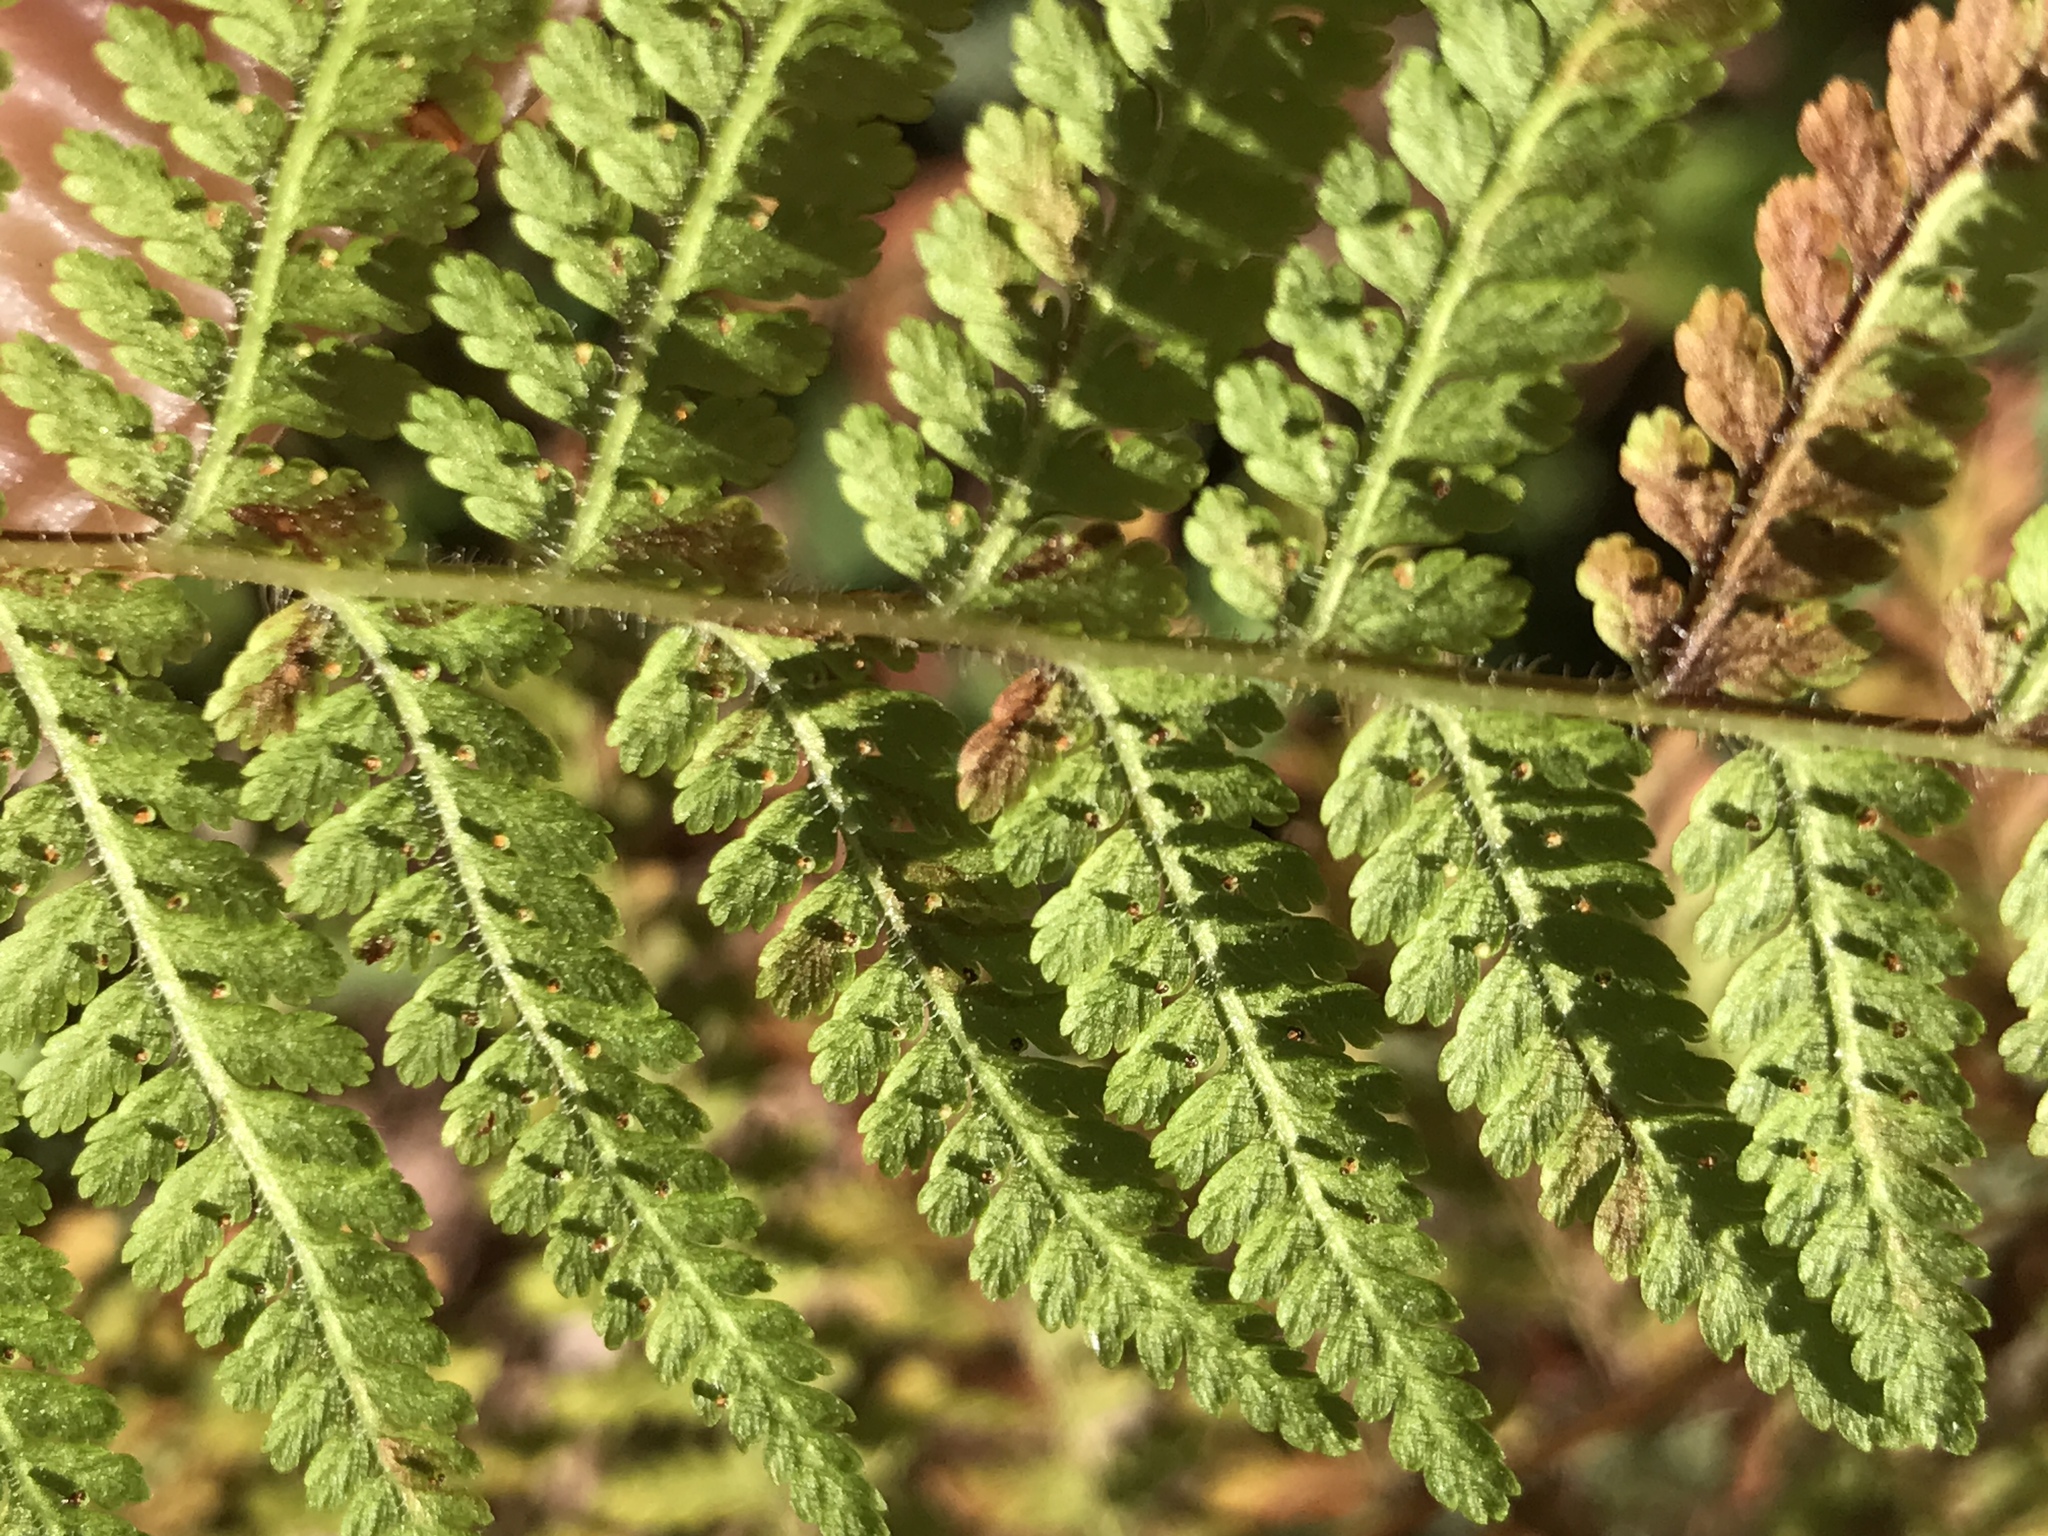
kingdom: Plantae
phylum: Tracheophyta
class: Polypodiopsida
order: Polypodiales
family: Dennstaedtiaceae
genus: Sitobolium
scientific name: Sitobolium punctilobum
